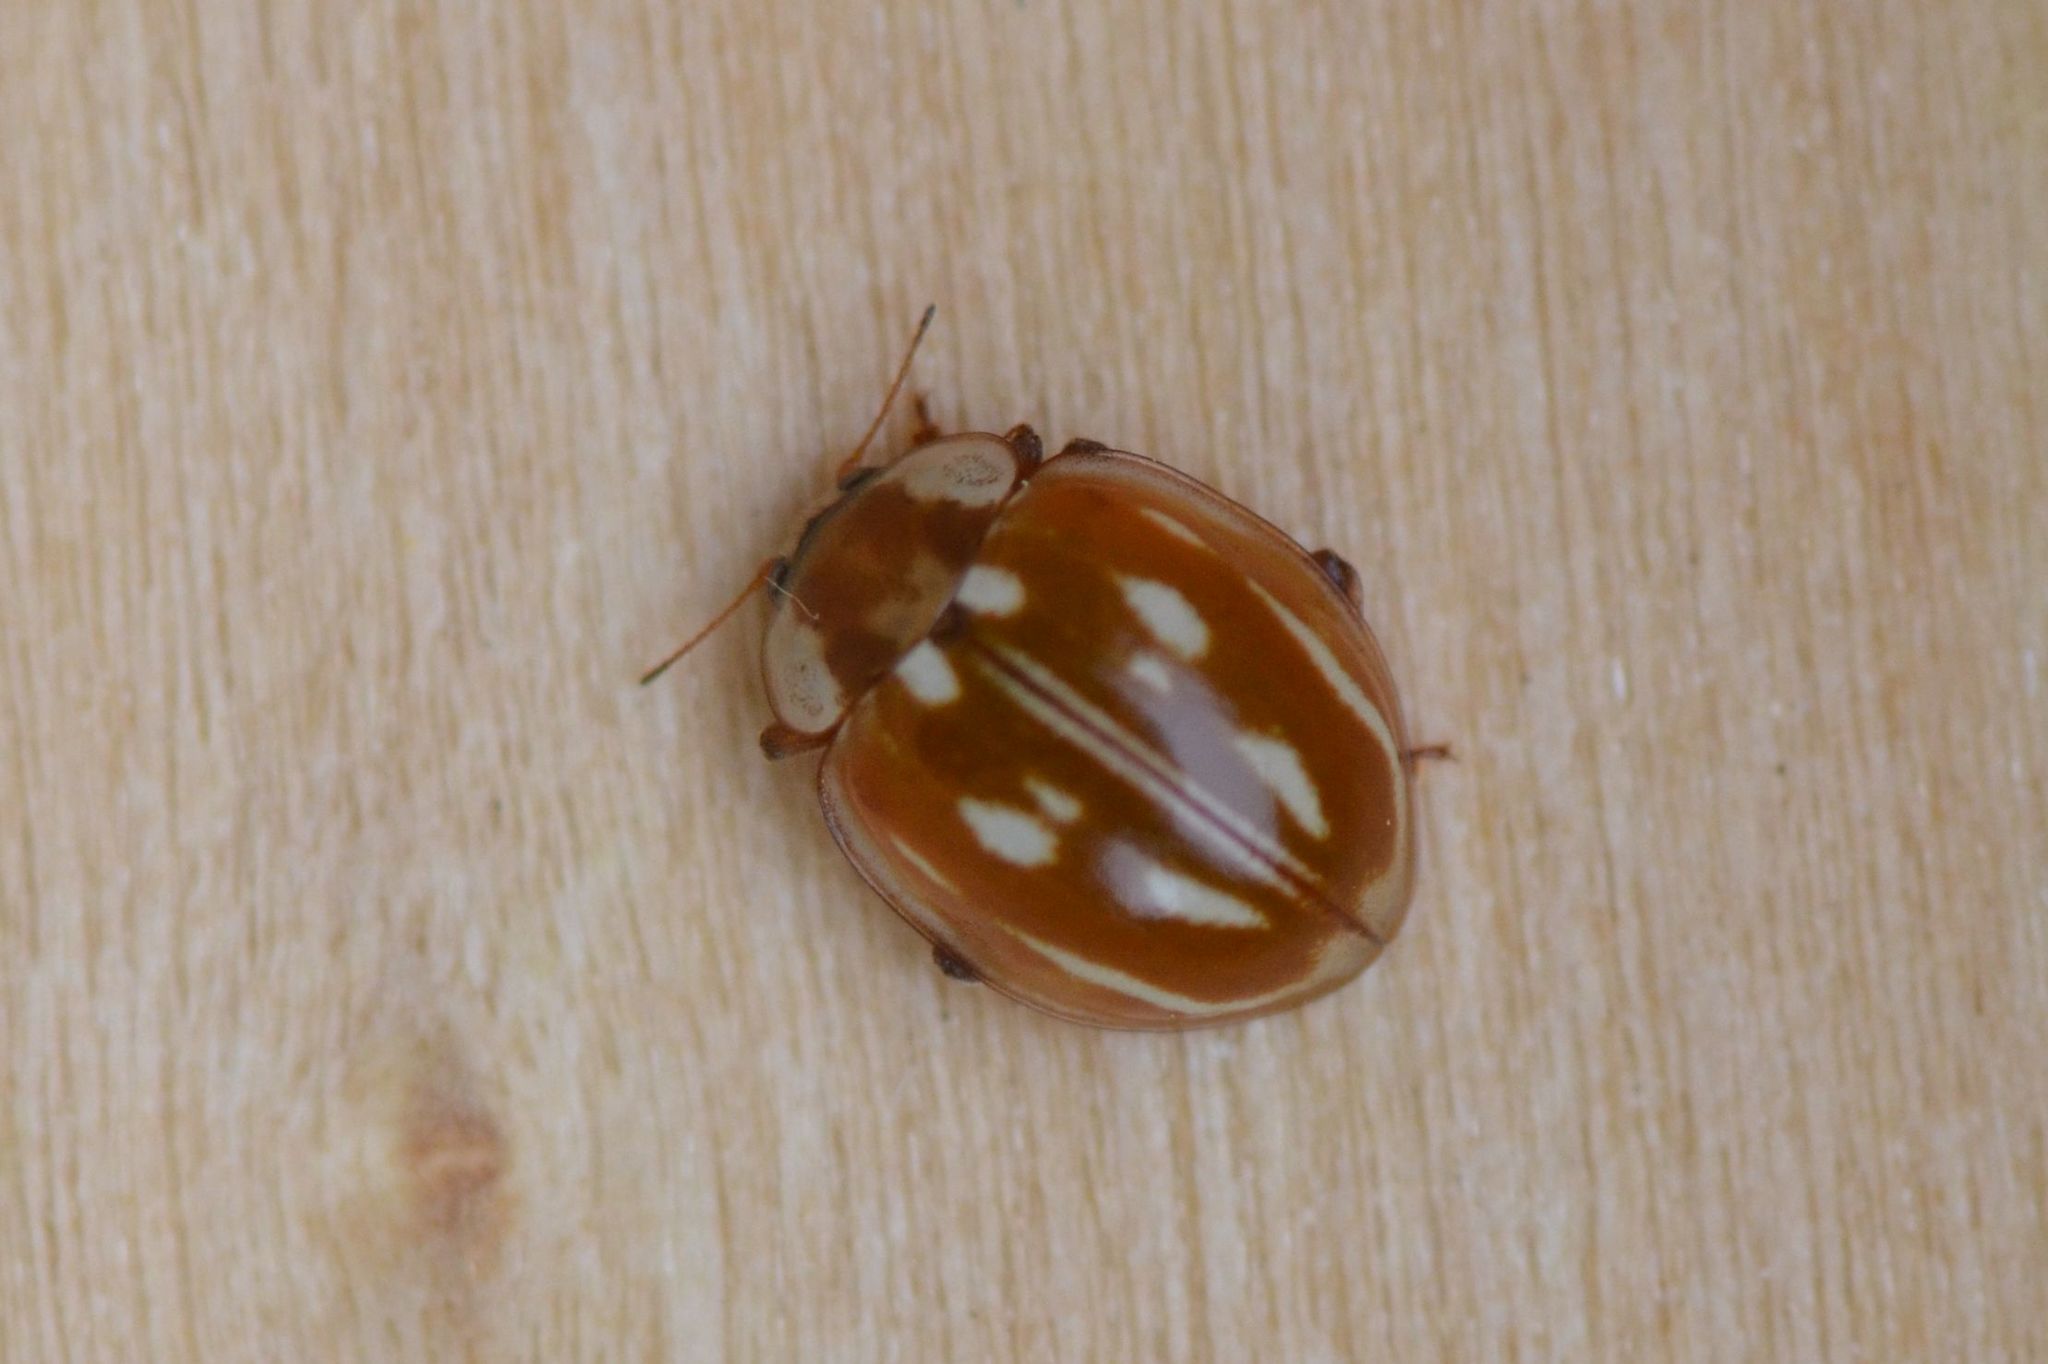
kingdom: Animalia
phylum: Arthropoda
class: Insecta
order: Coleoptera
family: Coccinellidae
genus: Myzia
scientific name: Myzia oblongoguttata
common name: Striped ladybird
